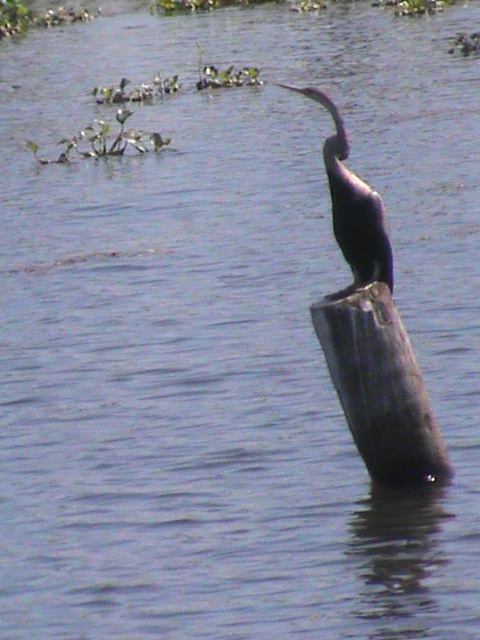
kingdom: Animalia
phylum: Chordata
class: Aves
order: Suliformes
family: Anhingidae
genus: Anhinga
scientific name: Anhinga melanogaster
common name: Oriental darter
